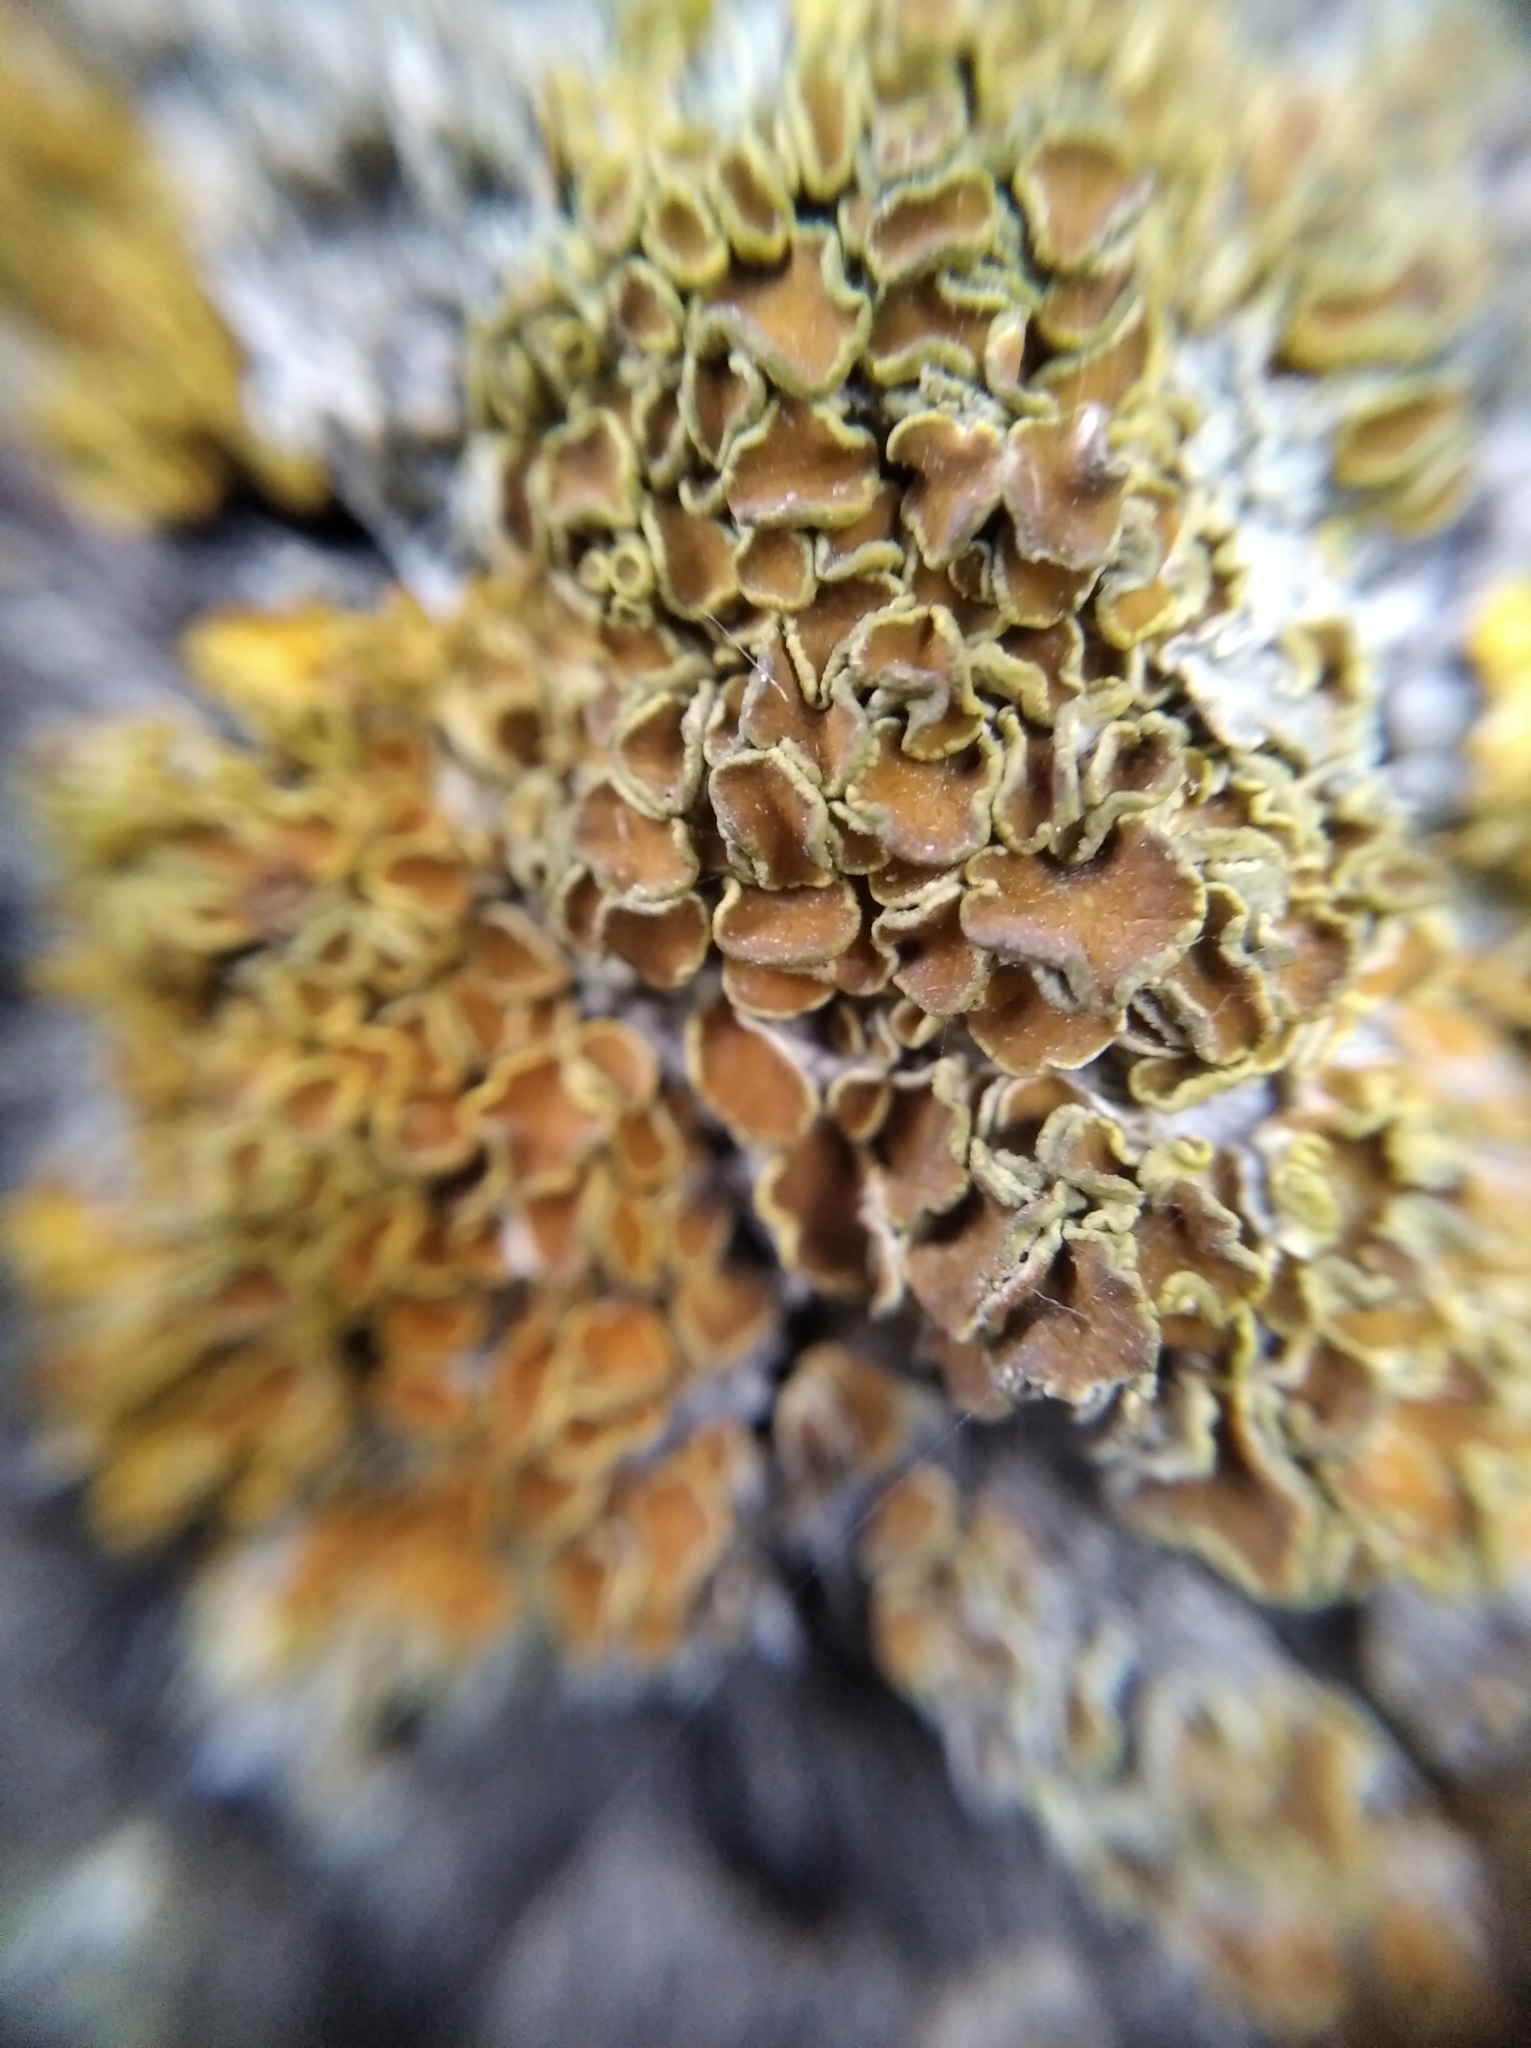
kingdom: Fungi
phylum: Ascomycota
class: Lecanoromycetes
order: Teloschistales
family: Teloschistaceae
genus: Xanthoria
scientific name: Xanthoria parietina
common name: Common orange lichen
